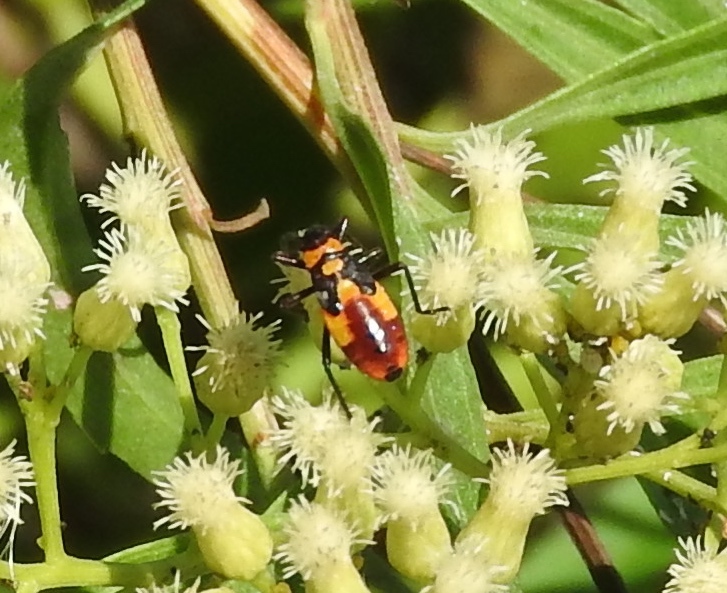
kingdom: Animalia
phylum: Arthropoda
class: Insecta
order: Hemiptera
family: Lygaeidae
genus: Oncopeltus
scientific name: Oncopeltus
